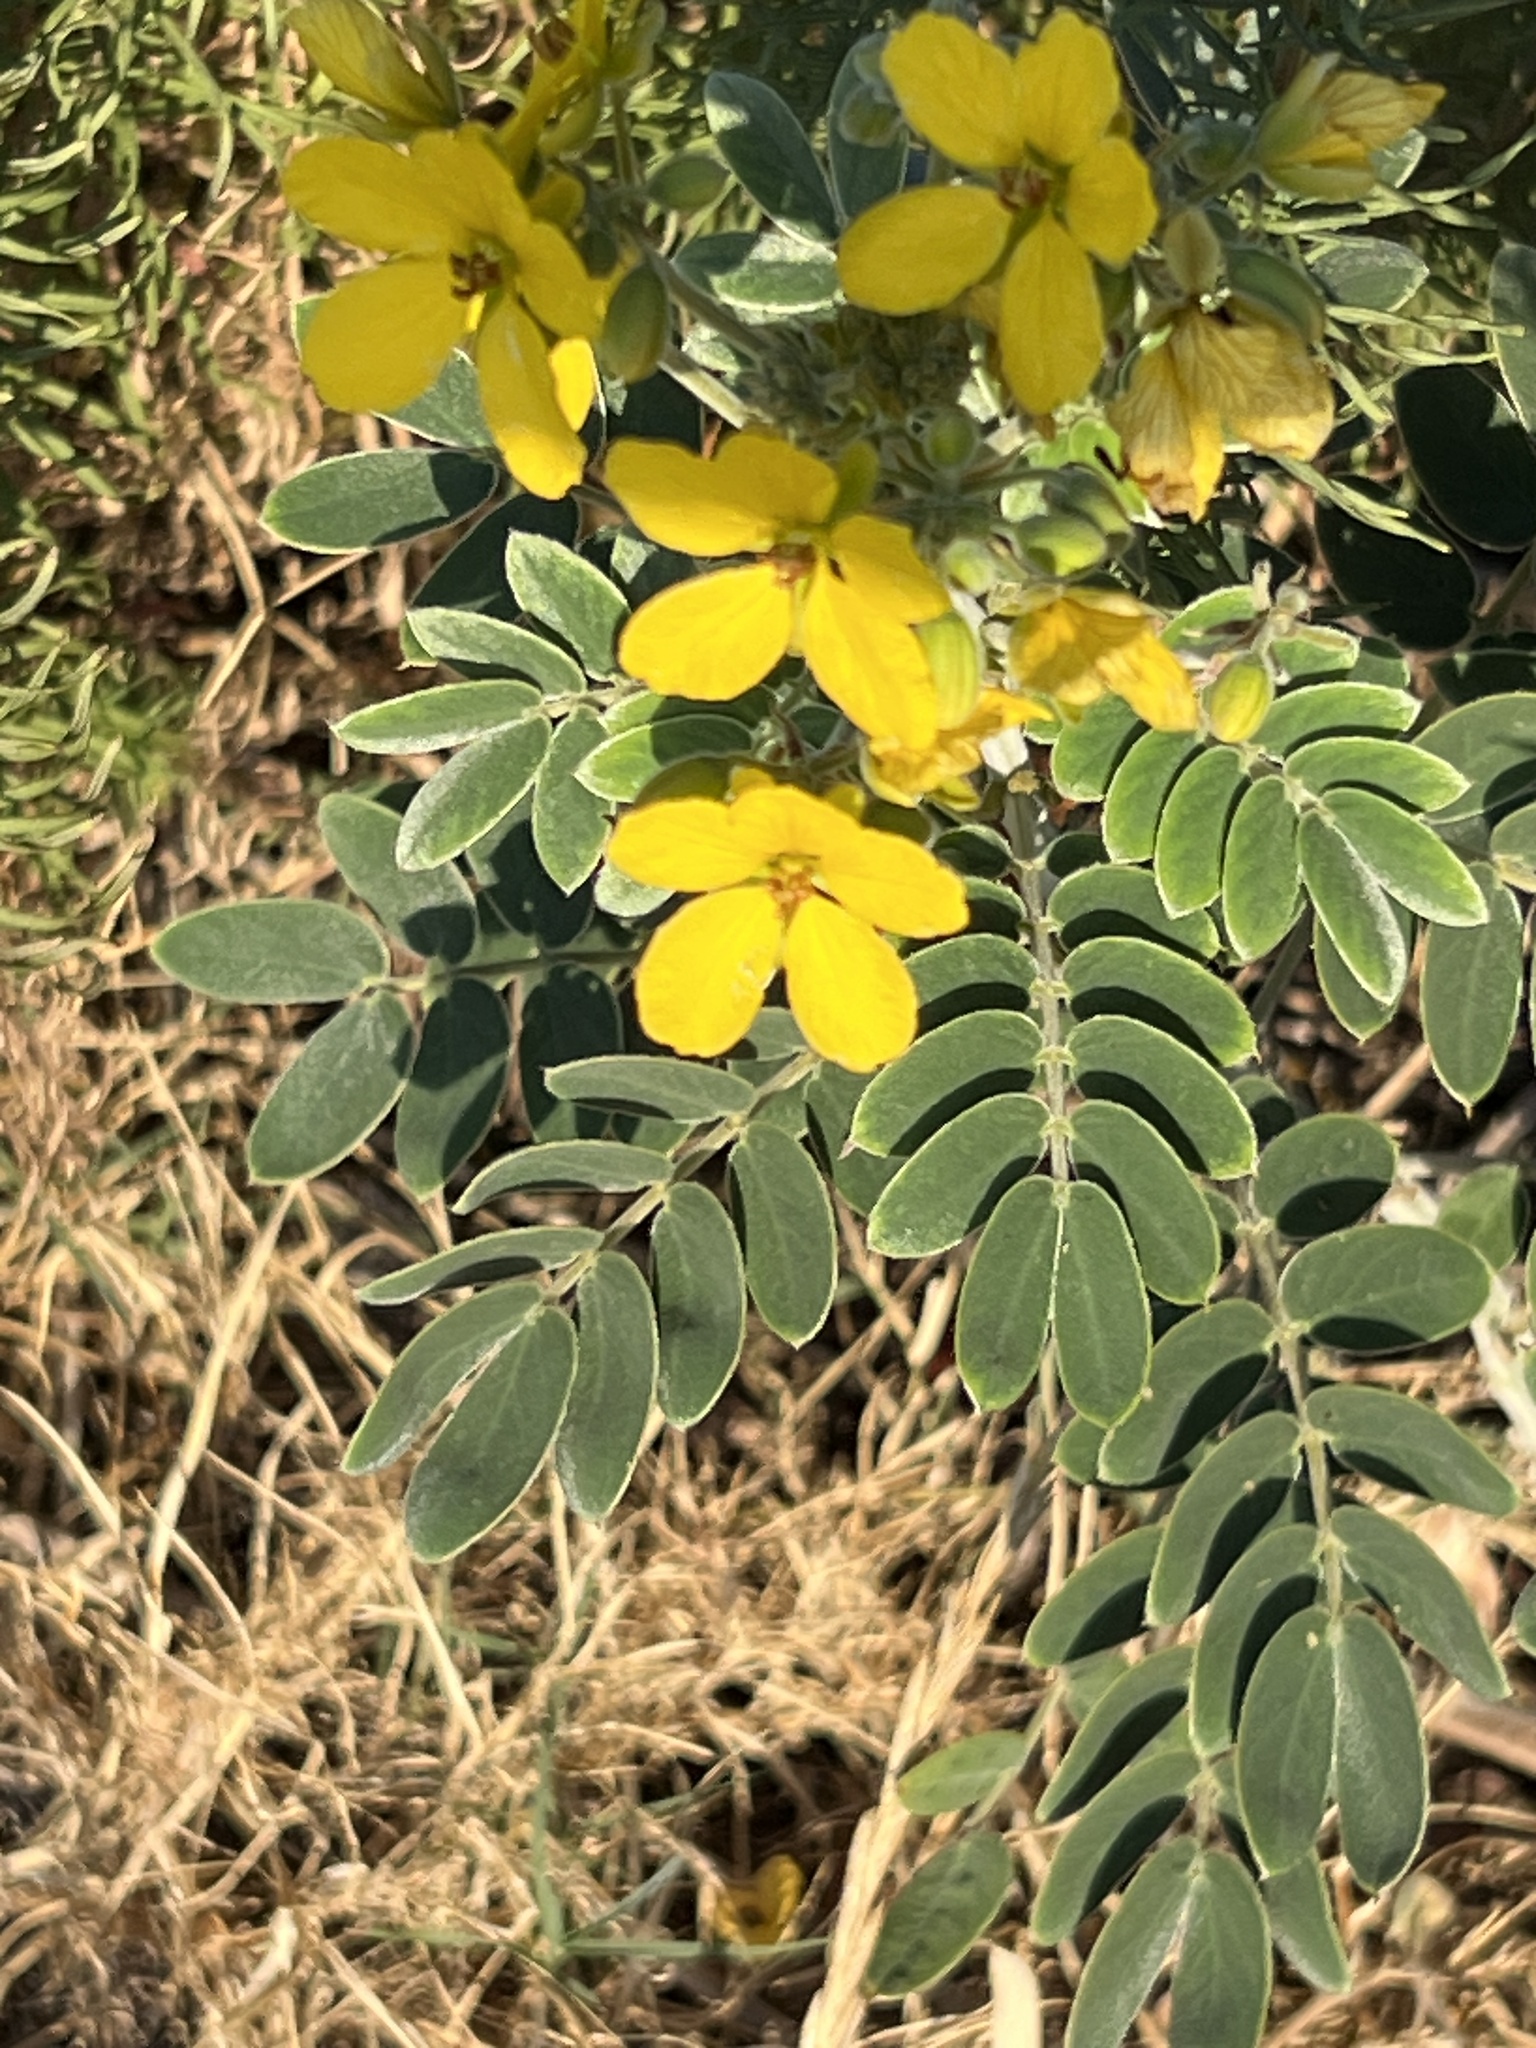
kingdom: Plantae
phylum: Tracheophyta
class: Magnoliopsida
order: Fabales
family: Fabaceae
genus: Senna
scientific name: Senna lindheimeriana
